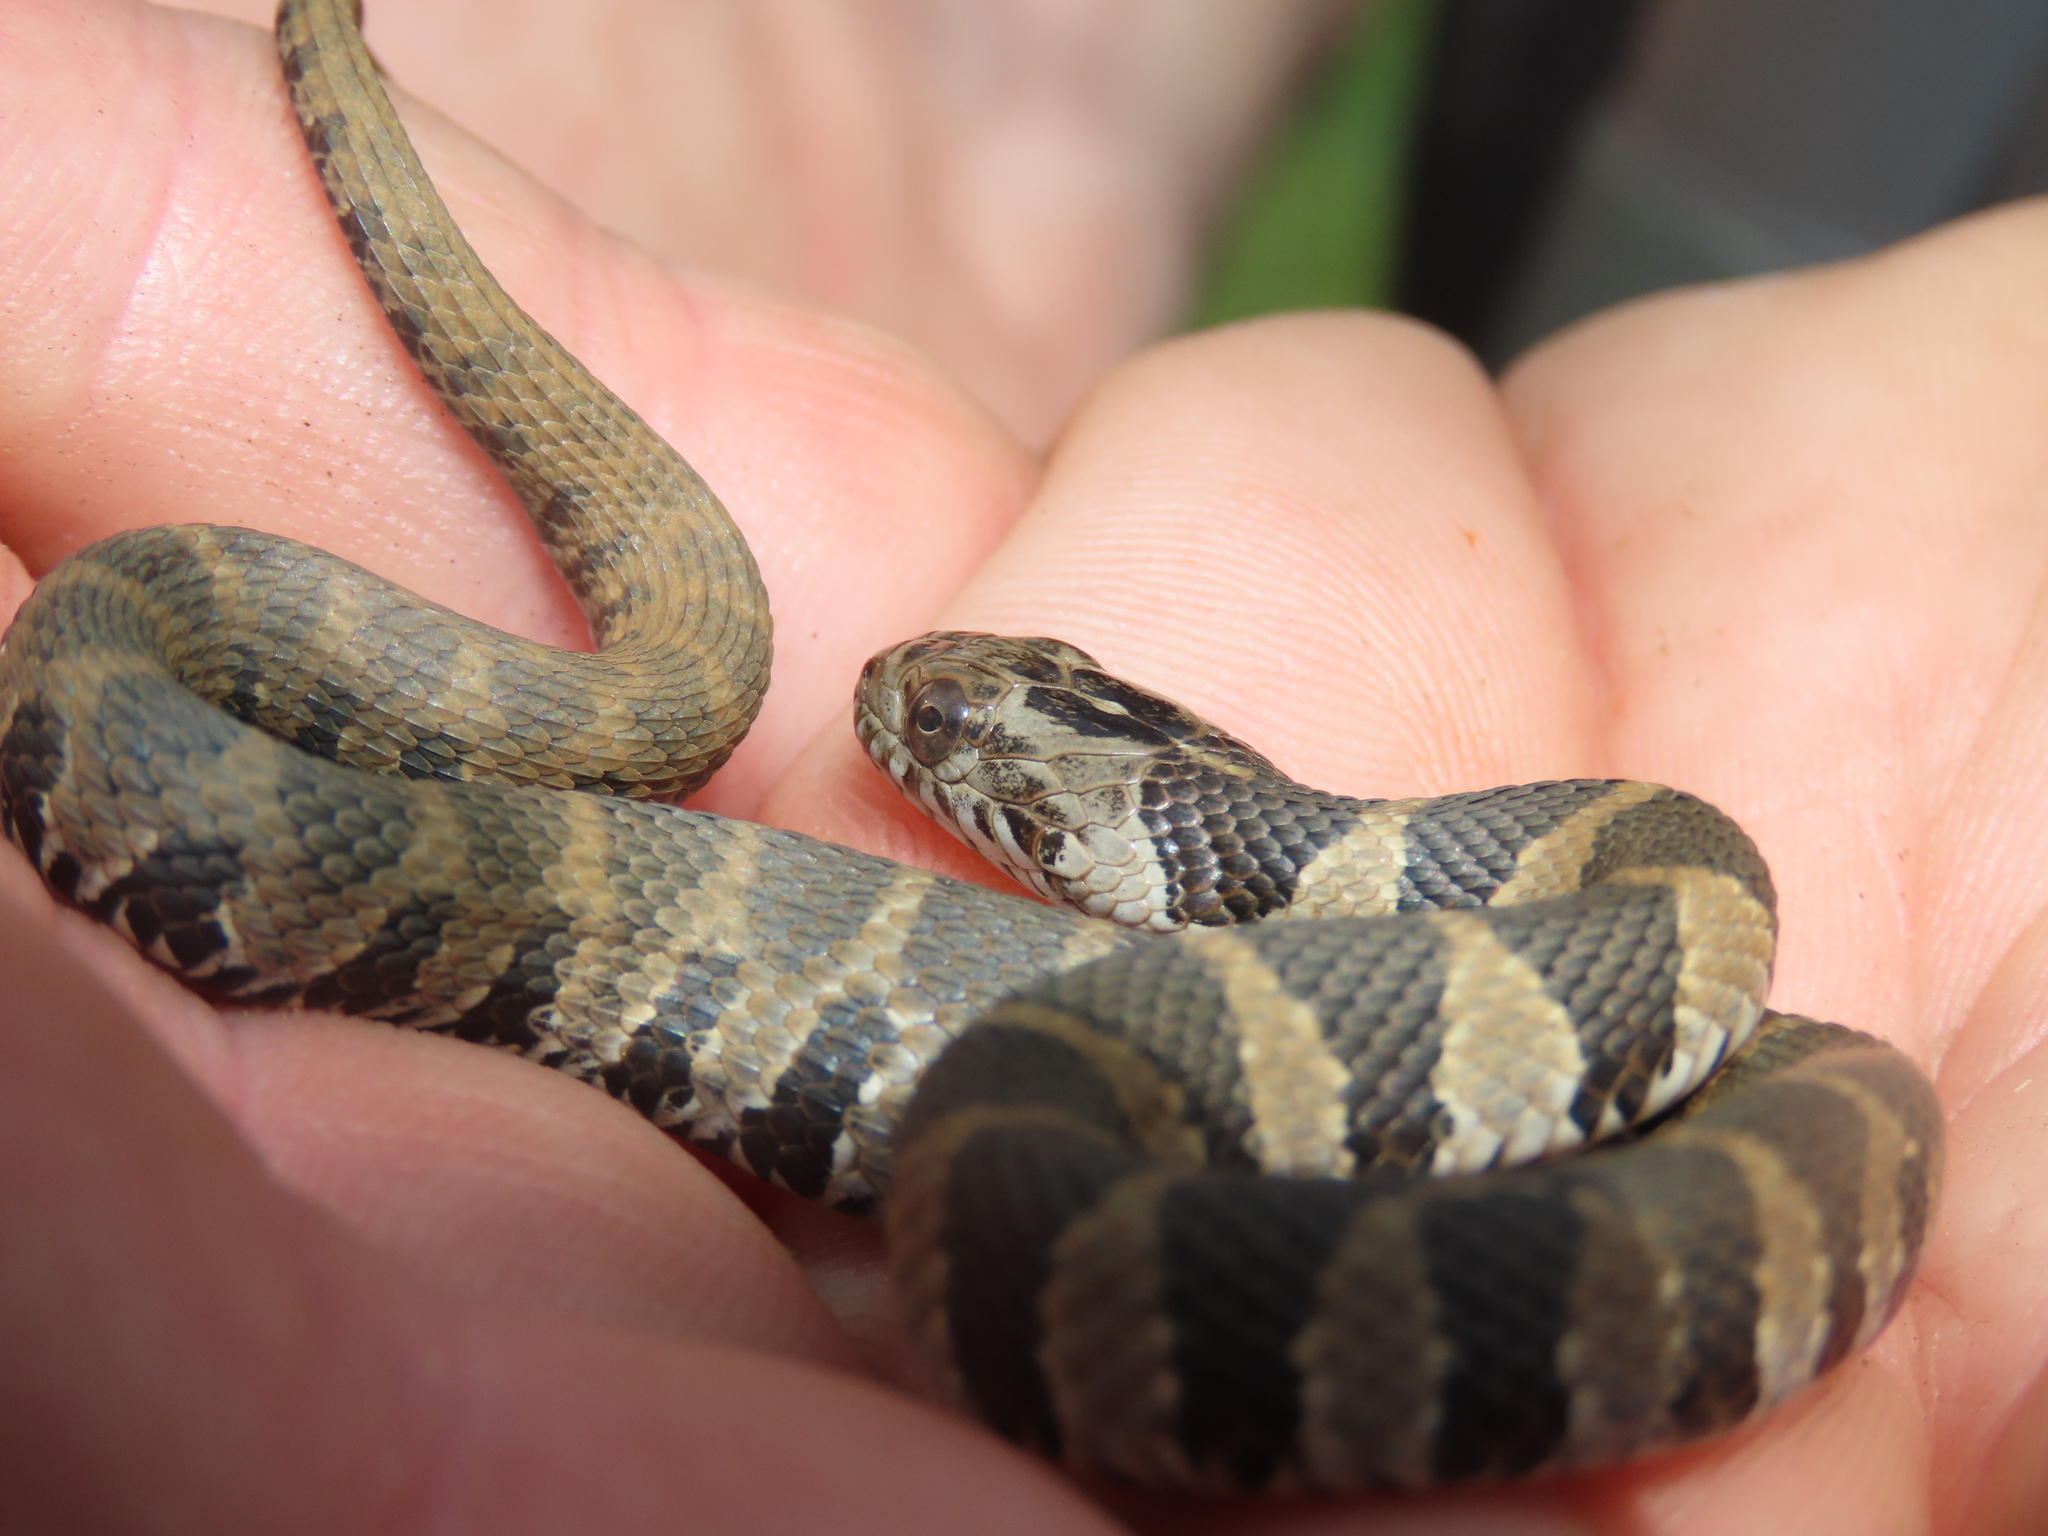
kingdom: Animalia
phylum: Chordata
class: Squamata
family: Colubridae
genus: Nerodia
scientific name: Nerodia sipedon
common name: Northern water snake
